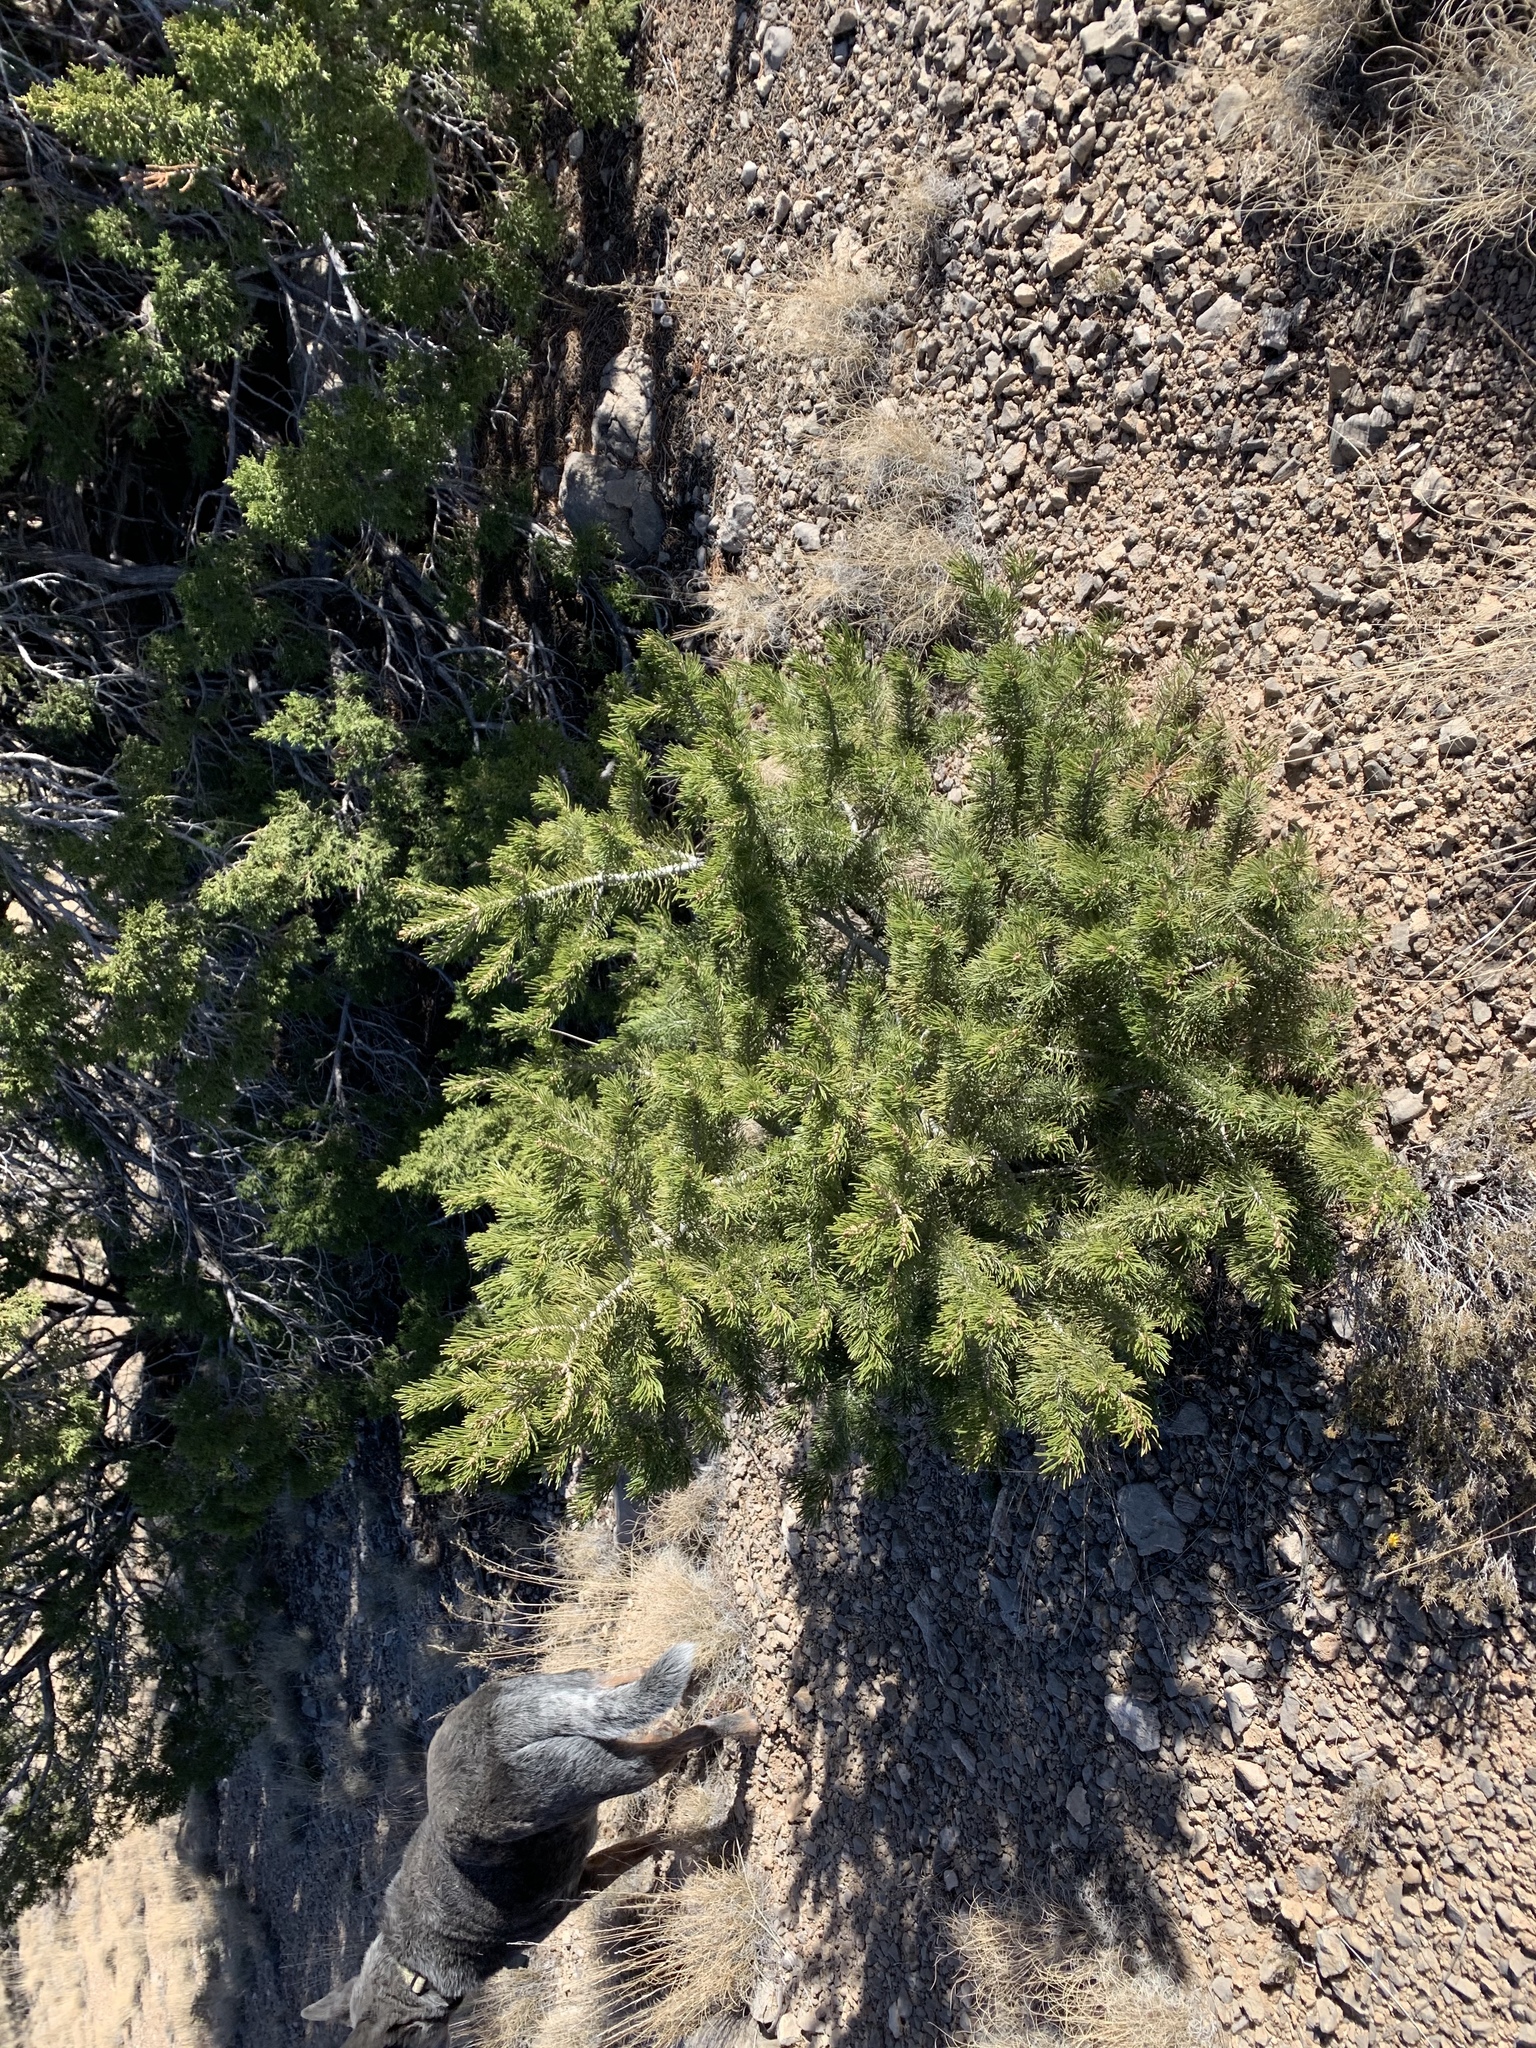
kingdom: Plantae
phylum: Tracheophyta
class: Pinopsida
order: Pinales
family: Pinaceae
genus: Pinus
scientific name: Pinus edulis
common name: Colorado pinyon
